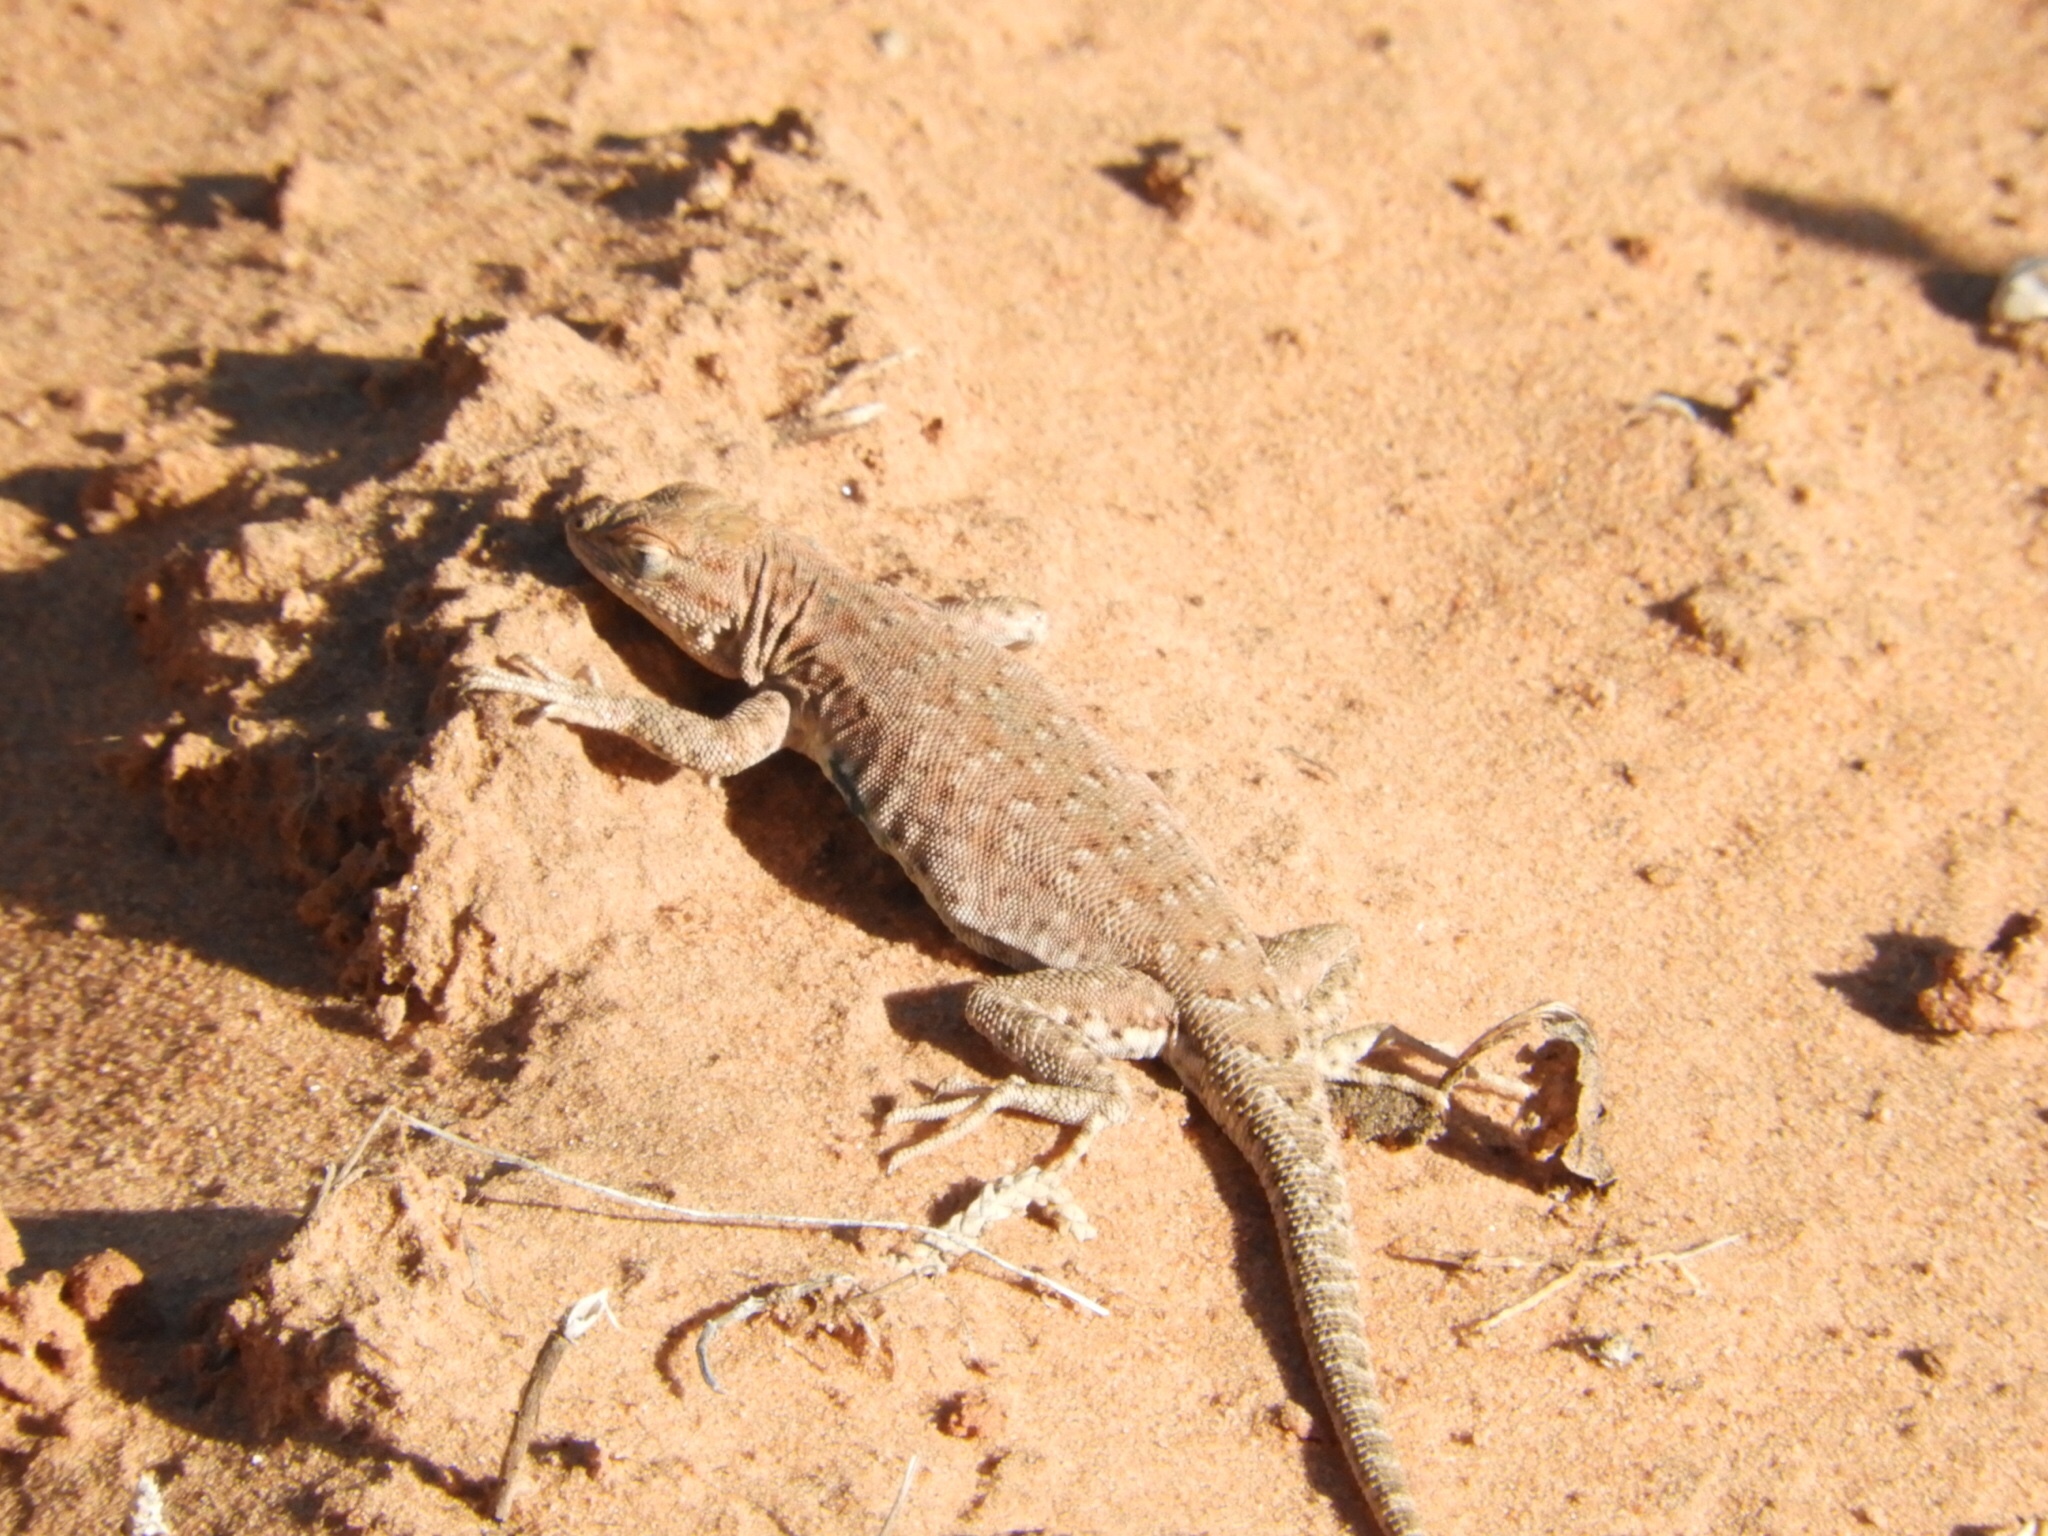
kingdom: Animalia
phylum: Chordata
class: Squamata
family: Phrynosomatidae
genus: Uta
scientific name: Uta stansburiana
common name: Side-blotched lizard
